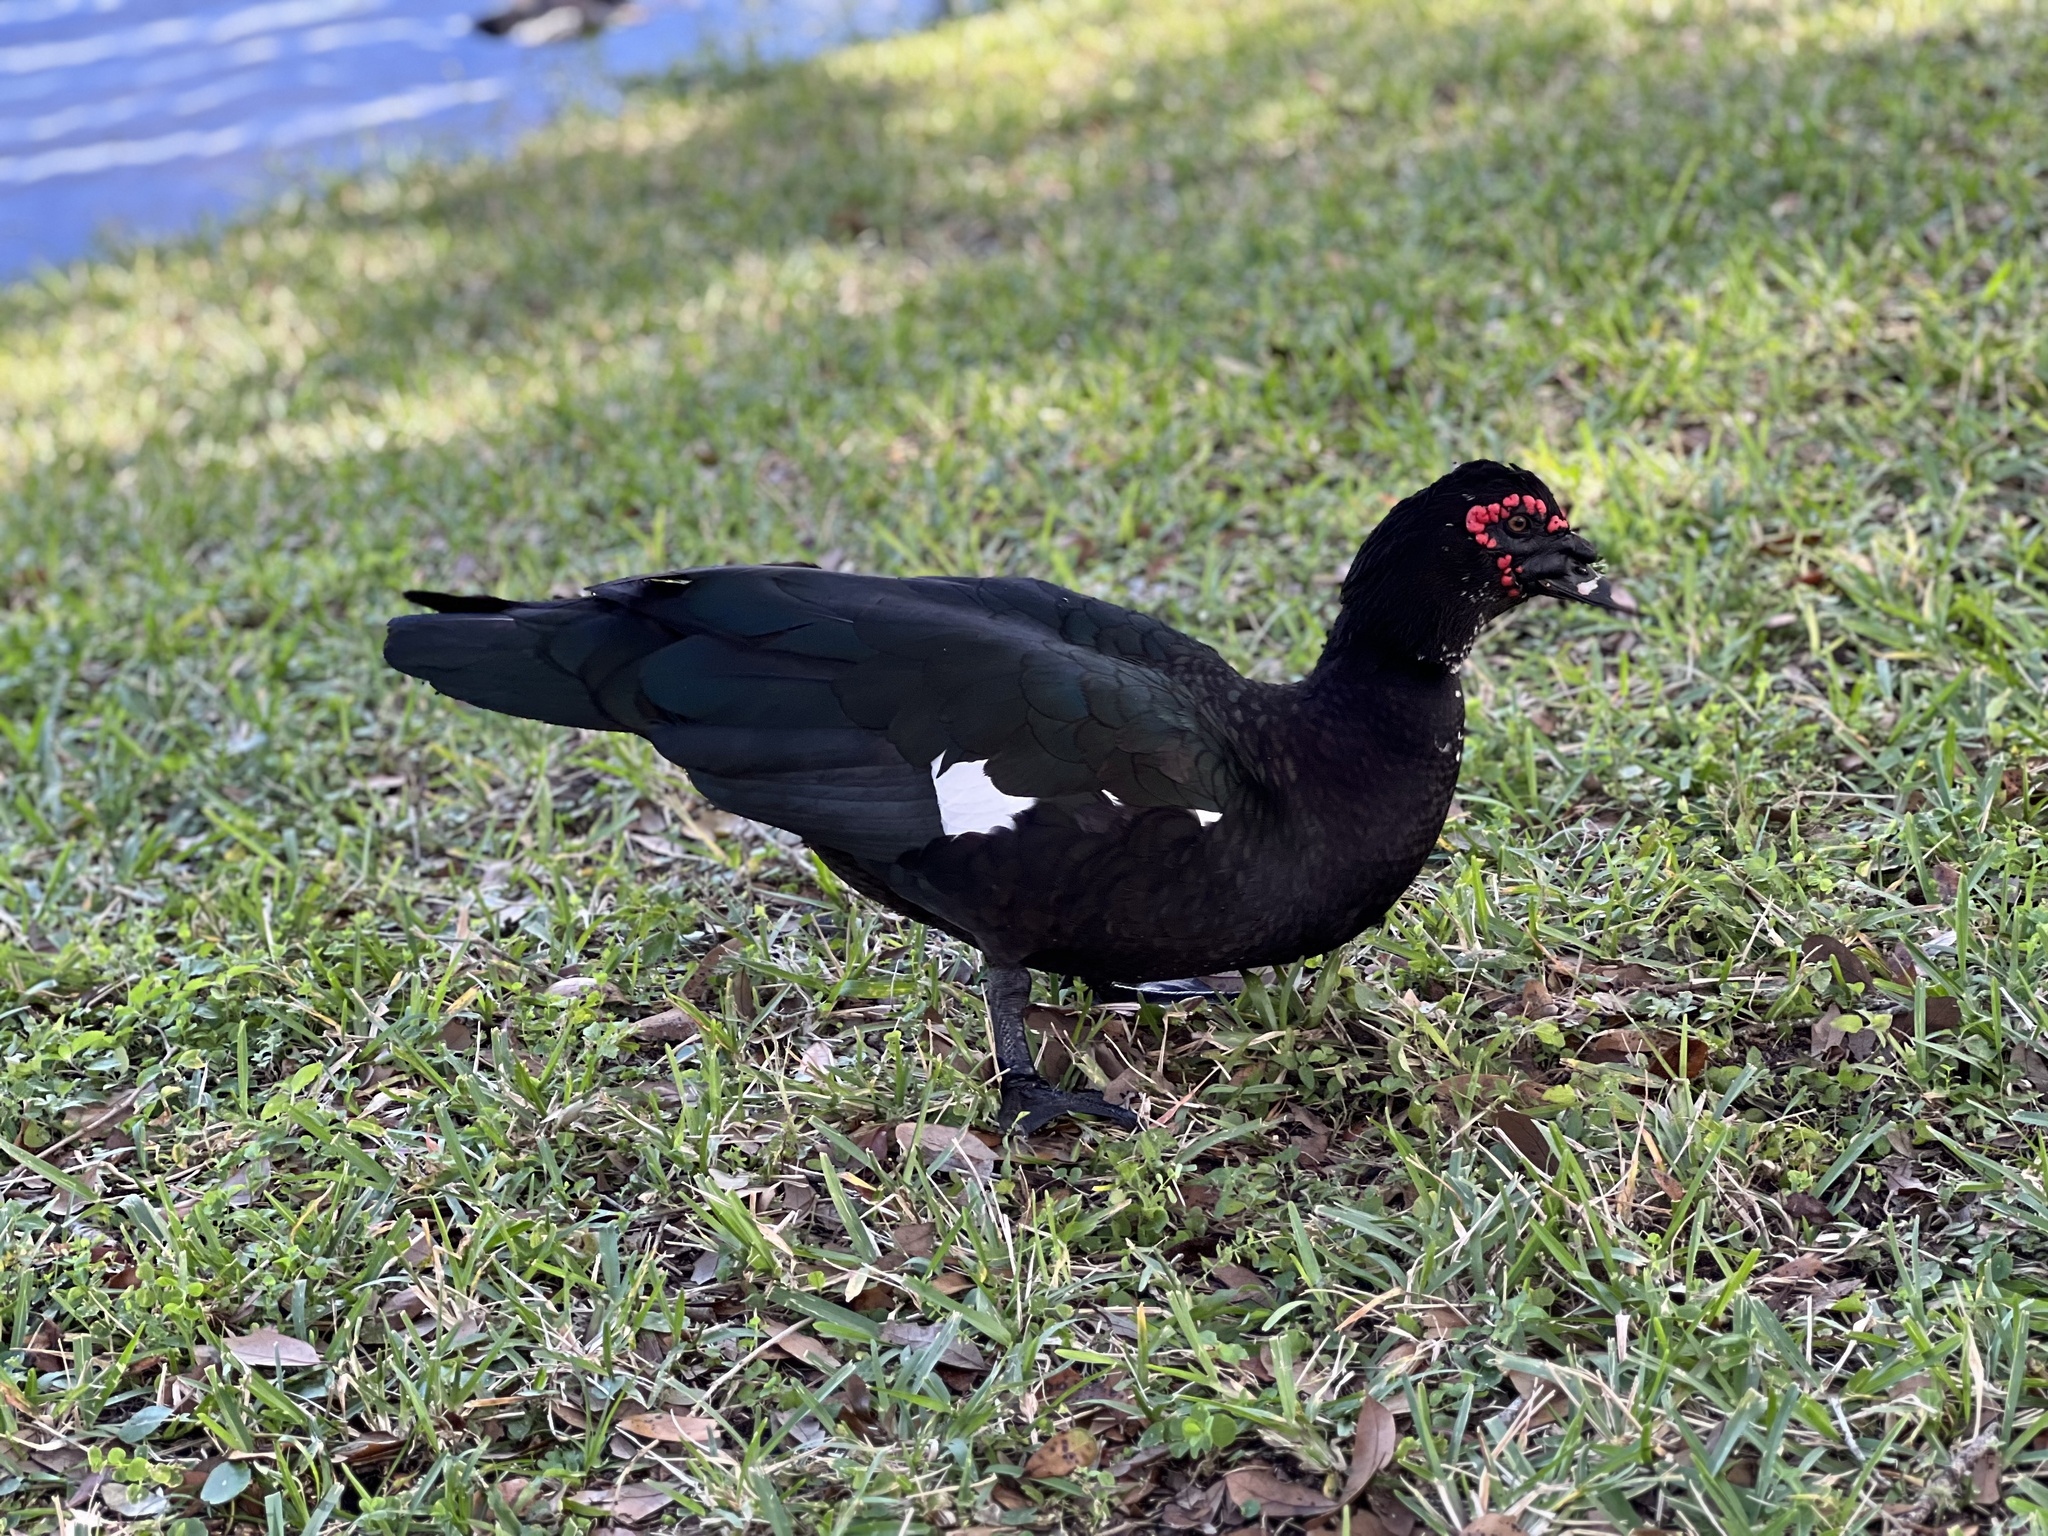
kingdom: Animalia
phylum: Chordata
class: Aves
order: Anseriformes
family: Anatidae
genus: Cairina
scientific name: Cairina moschata
